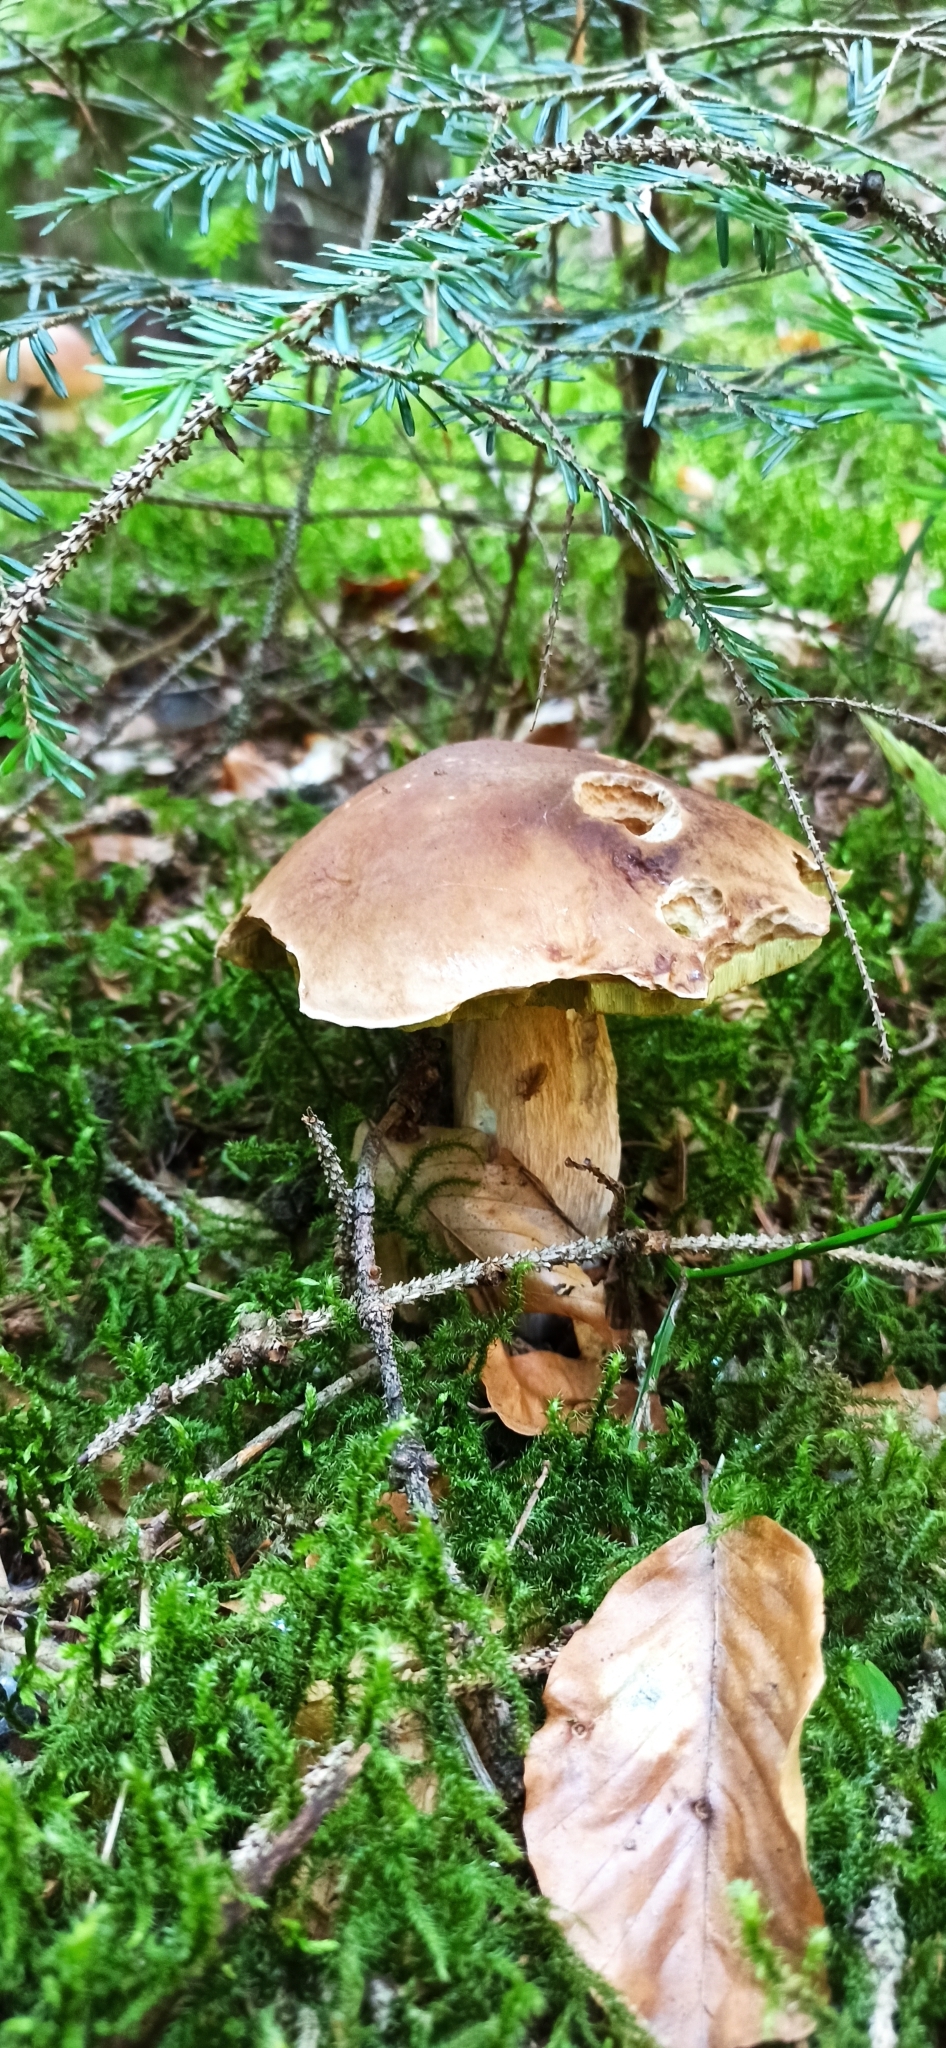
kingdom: Fungi
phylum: Basidiomycota
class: Agaricomycetes
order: Boletales
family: Boletaceae
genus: Boletus
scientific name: Boletus edulis
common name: Cep
